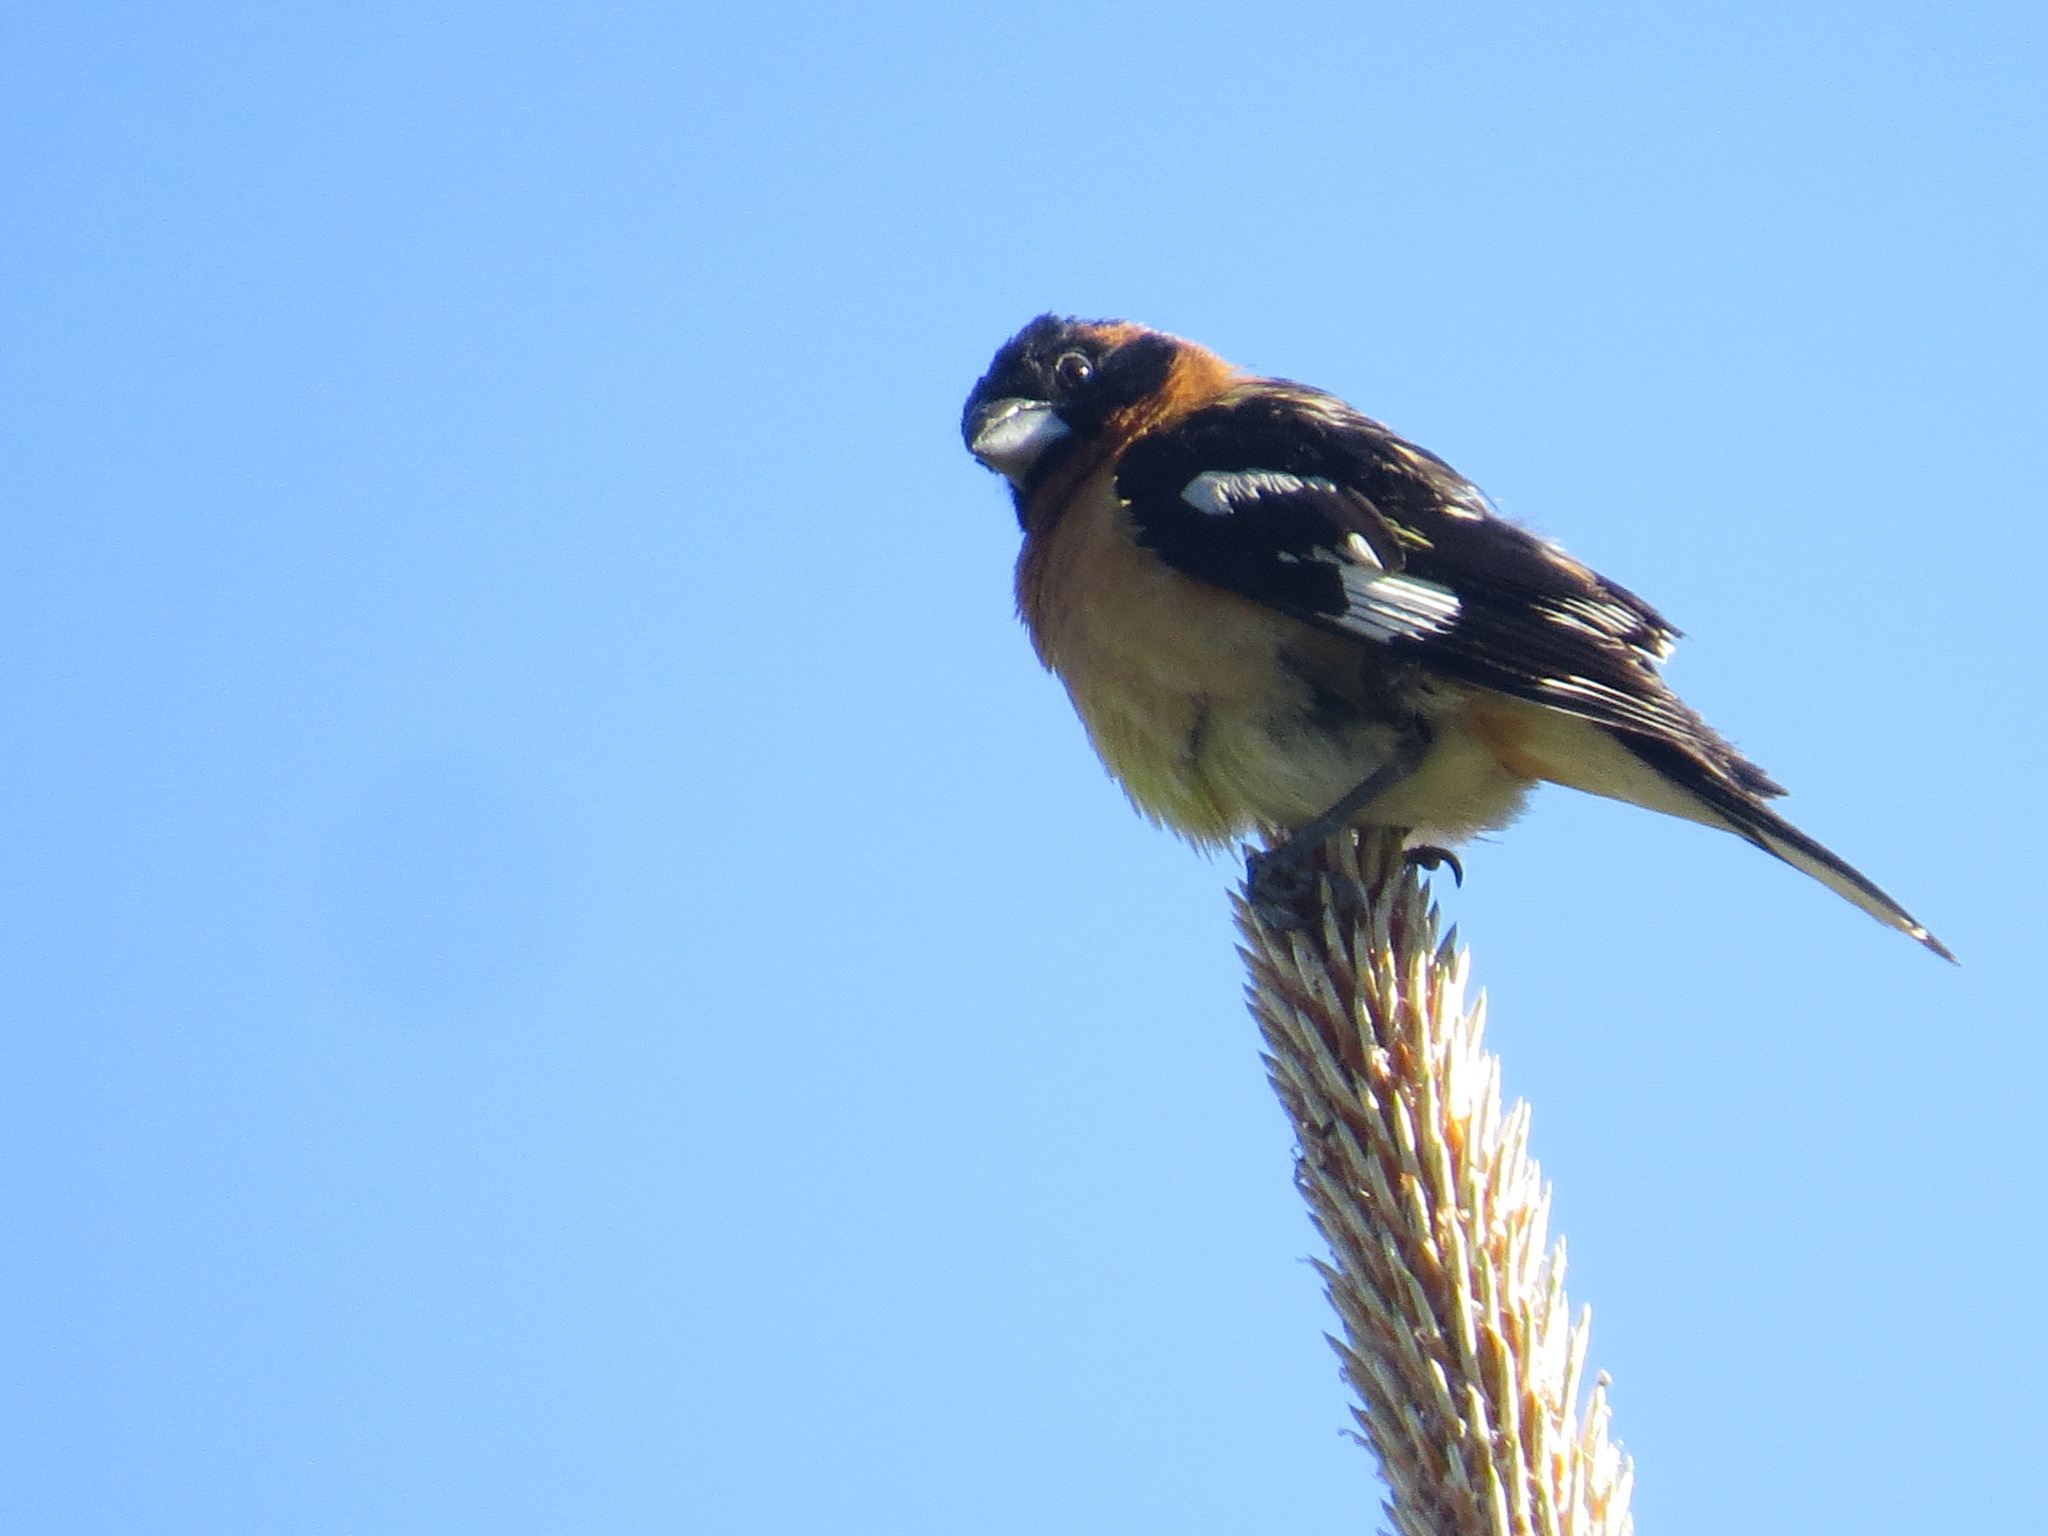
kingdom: Animalia
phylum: Chordata
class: Aves
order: Passeriformes
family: Cardinalidae
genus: Pheucticus
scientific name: Pheucticus melanocephalus
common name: Black-headed grosbeak
